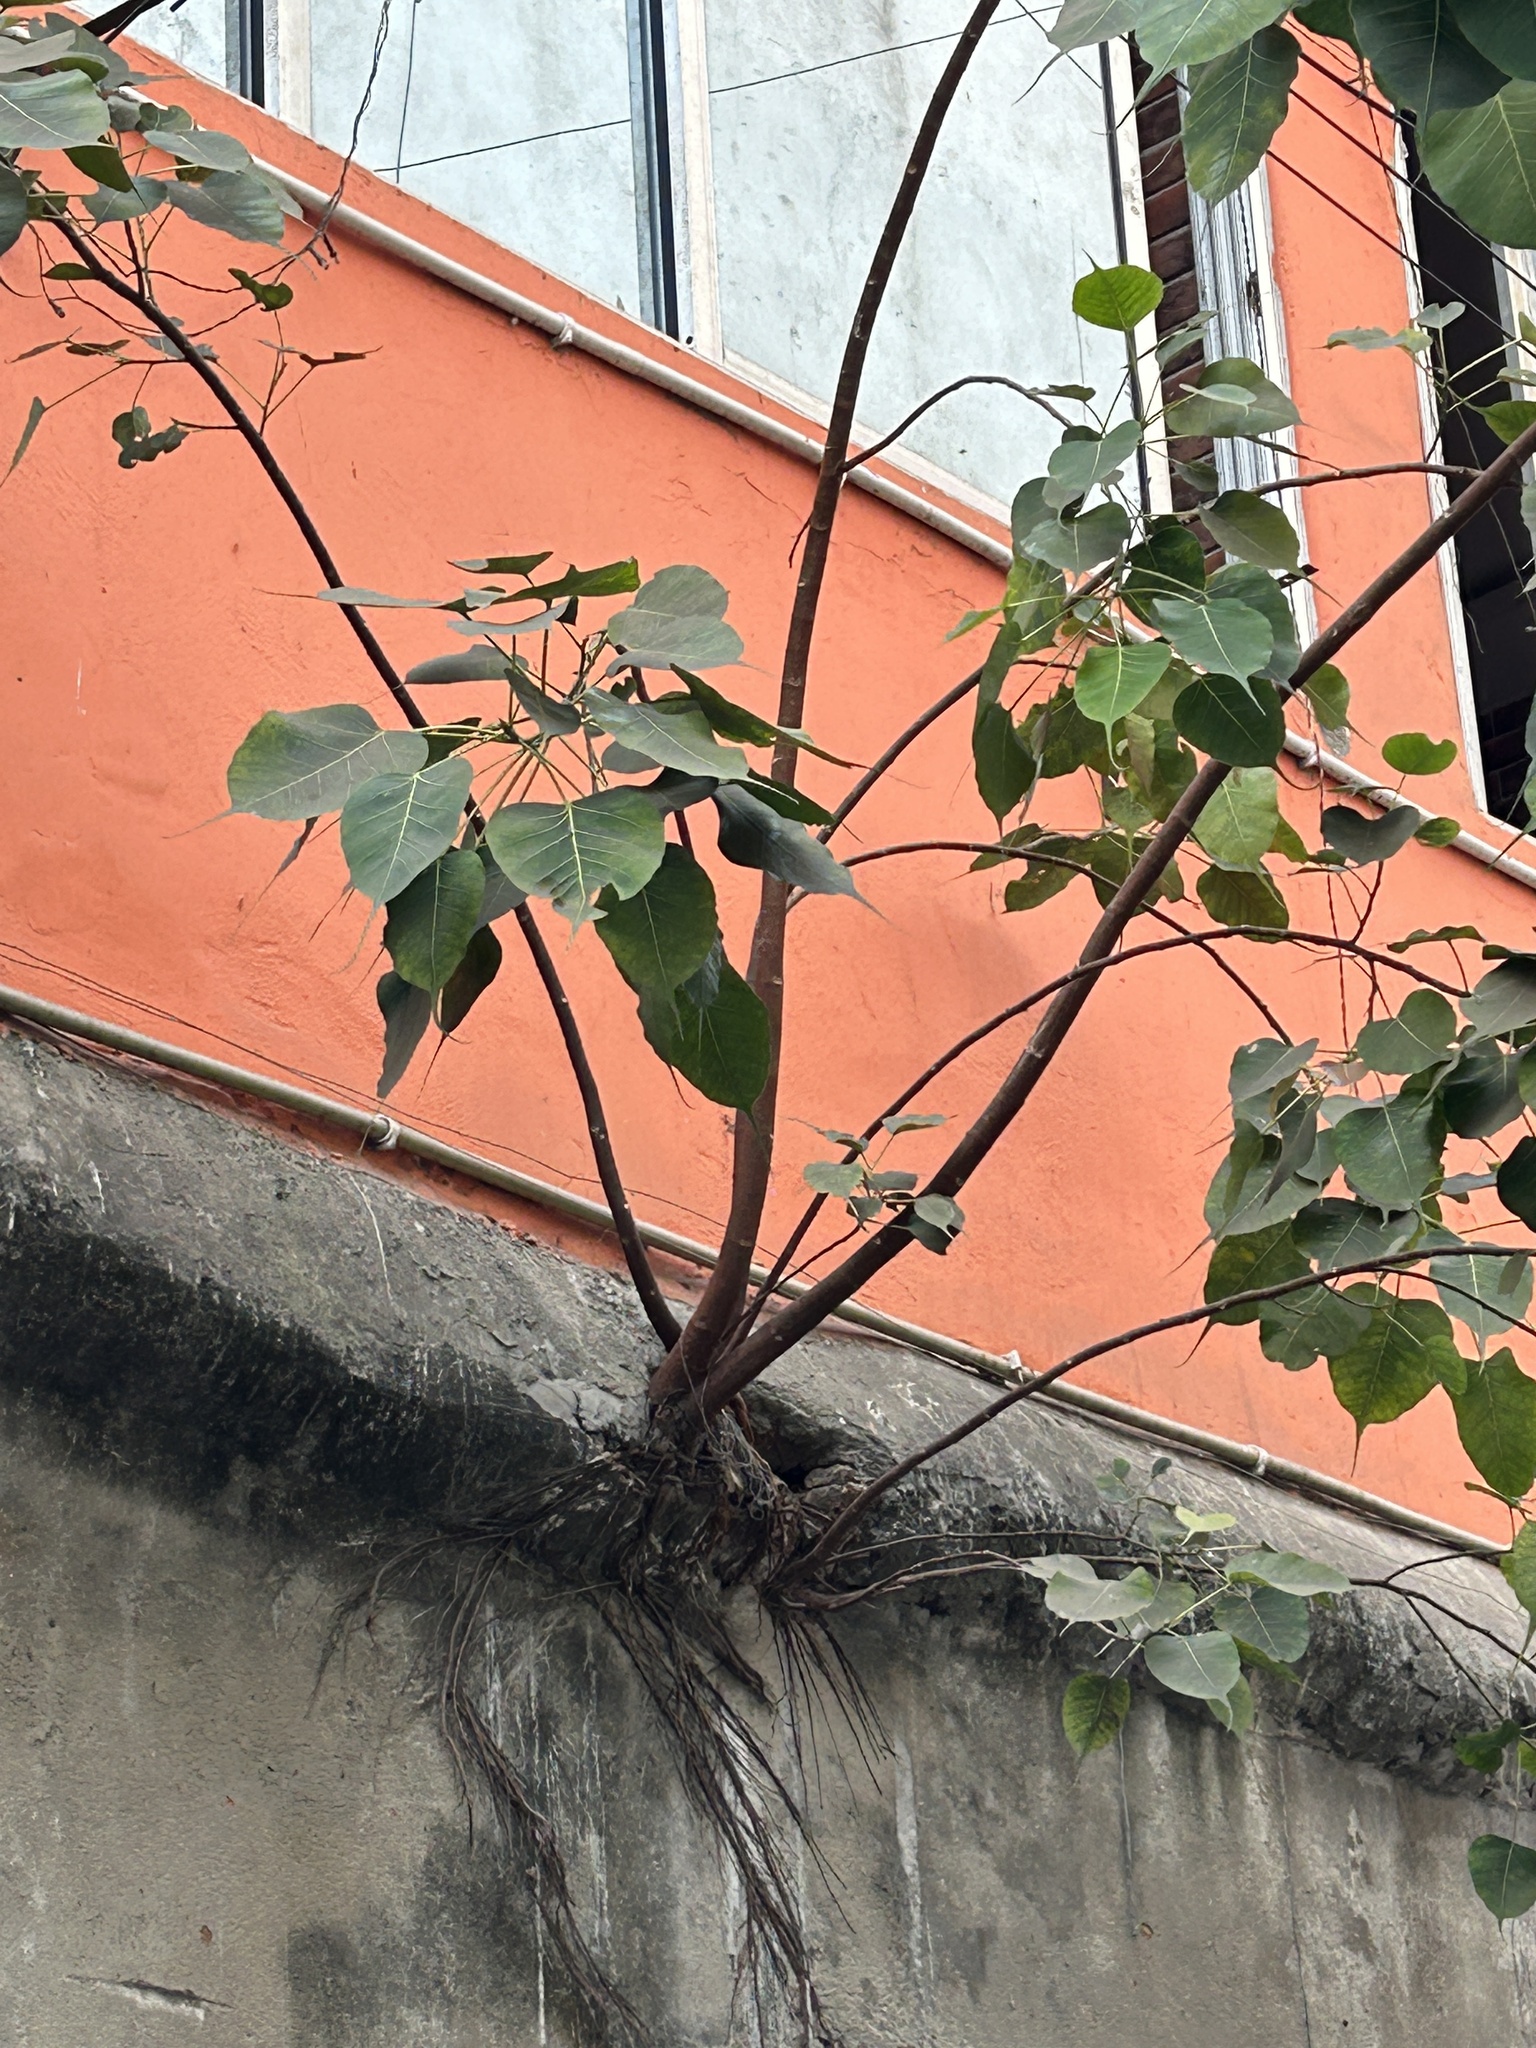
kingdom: Plantae
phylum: Tracheophyta
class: Magnoliopsida
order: Rosales
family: Moraceae
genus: Ficus
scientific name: Ficus religiosa
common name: Bodhi tree
